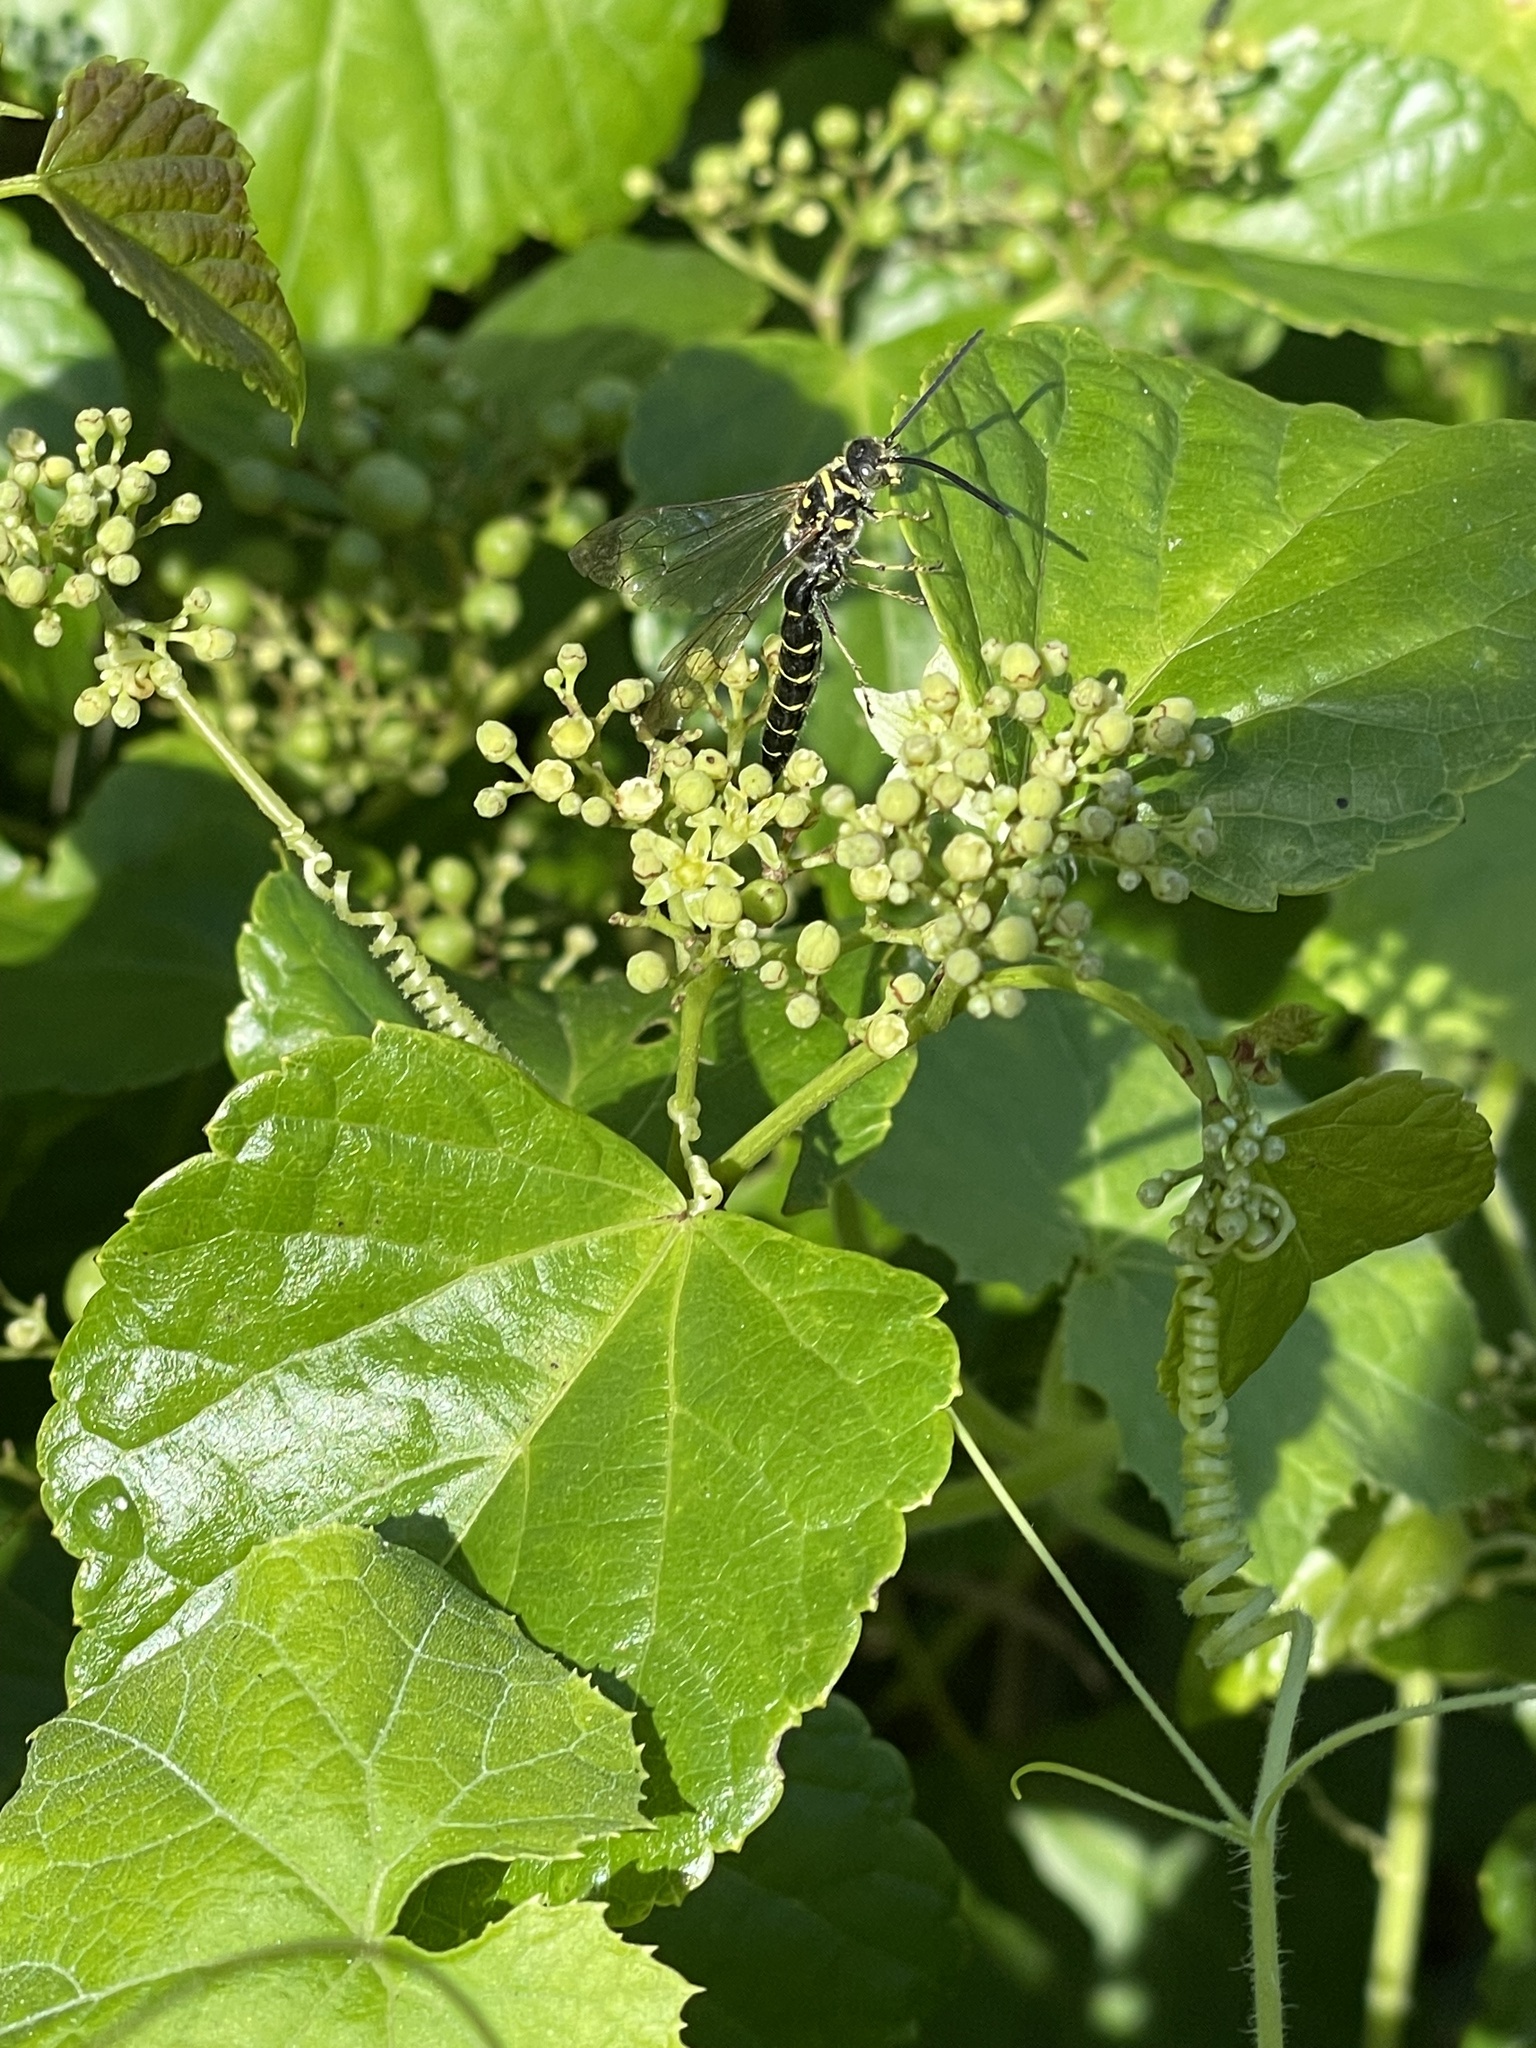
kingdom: Animalia
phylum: Arthropoda
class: Insecta
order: Hymenoptera
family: Tiphiidae
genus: Myzinum
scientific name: Myzinum quinquecinctum
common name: Five-banded thynnid wasp
